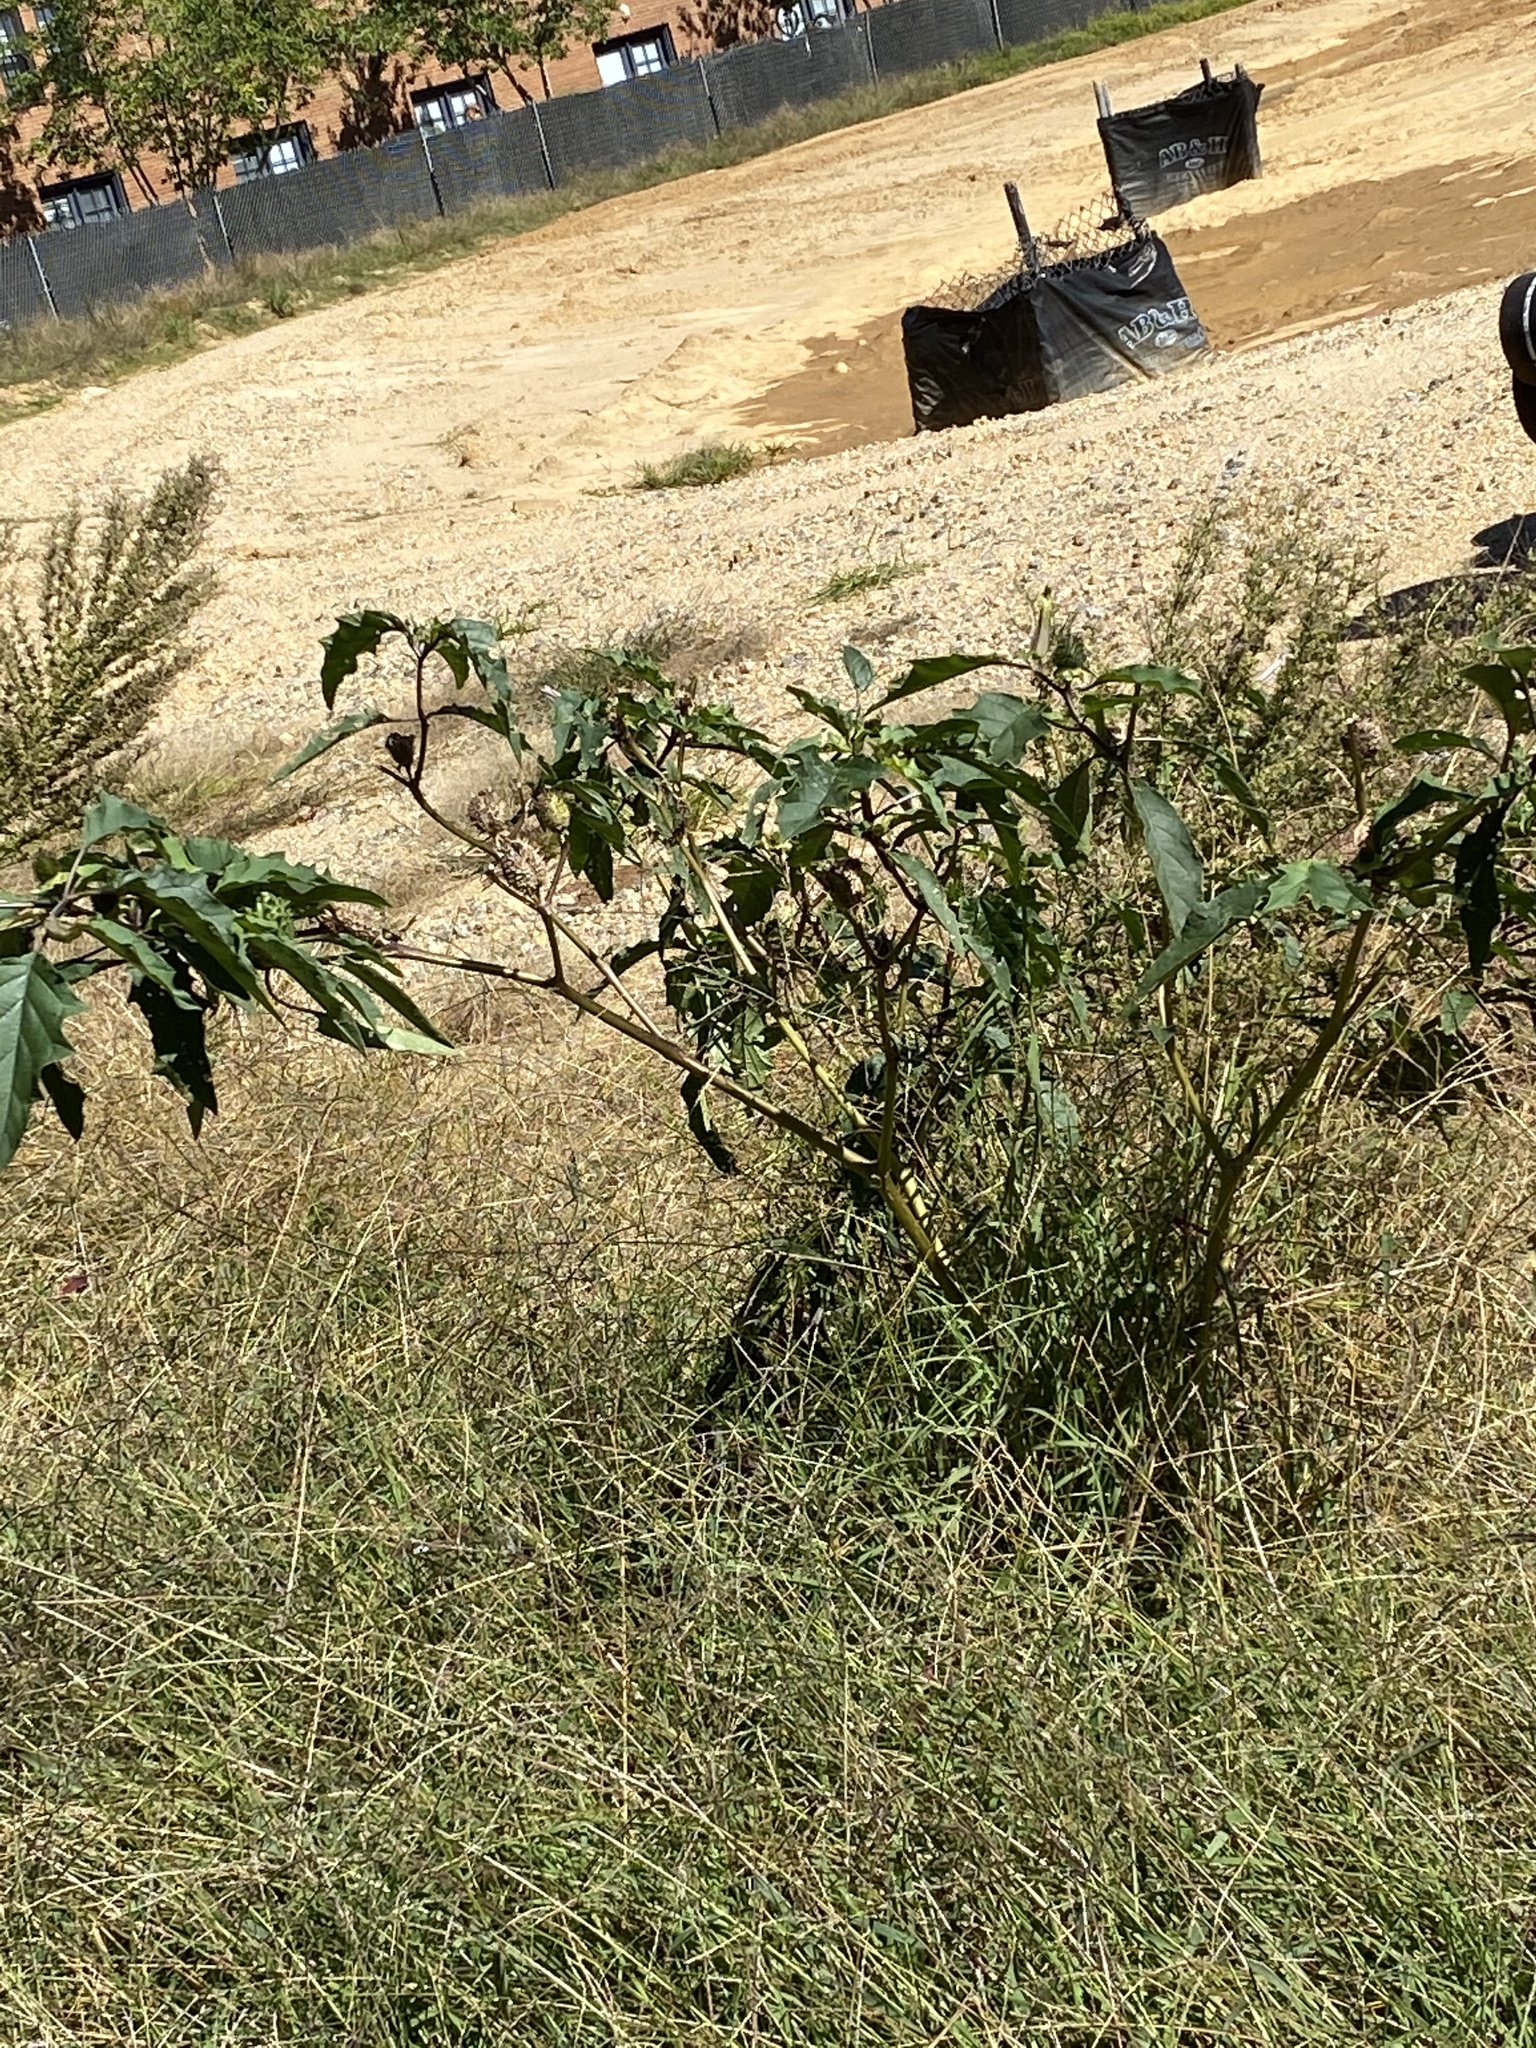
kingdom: Plantae
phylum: Tracheophyta
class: Magnoliopsida
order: Solanales
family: Solanaceae
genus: Datura
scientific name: Datura stramonium
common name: Thorn-apple
